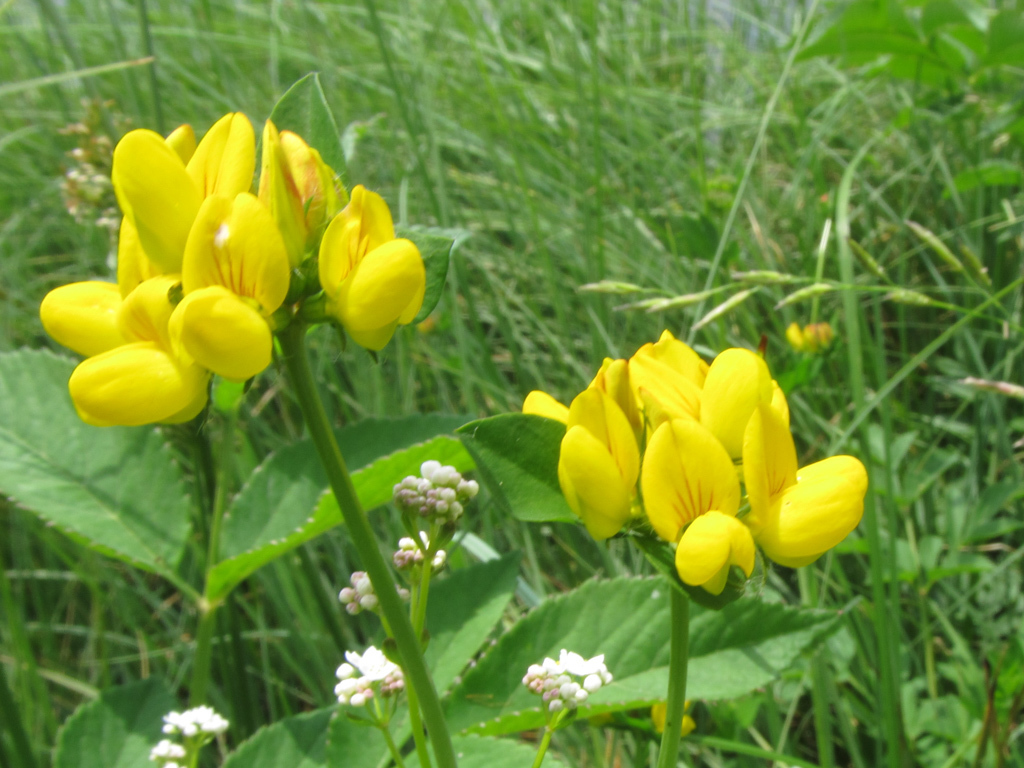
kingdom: Plantae
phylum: Tracheophyta
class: Magnoliopsida
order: Fabales
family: Fabaceae
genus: Lotus
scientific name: Lotus pedunculatus
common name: Greater birdsfoot-trefoil
